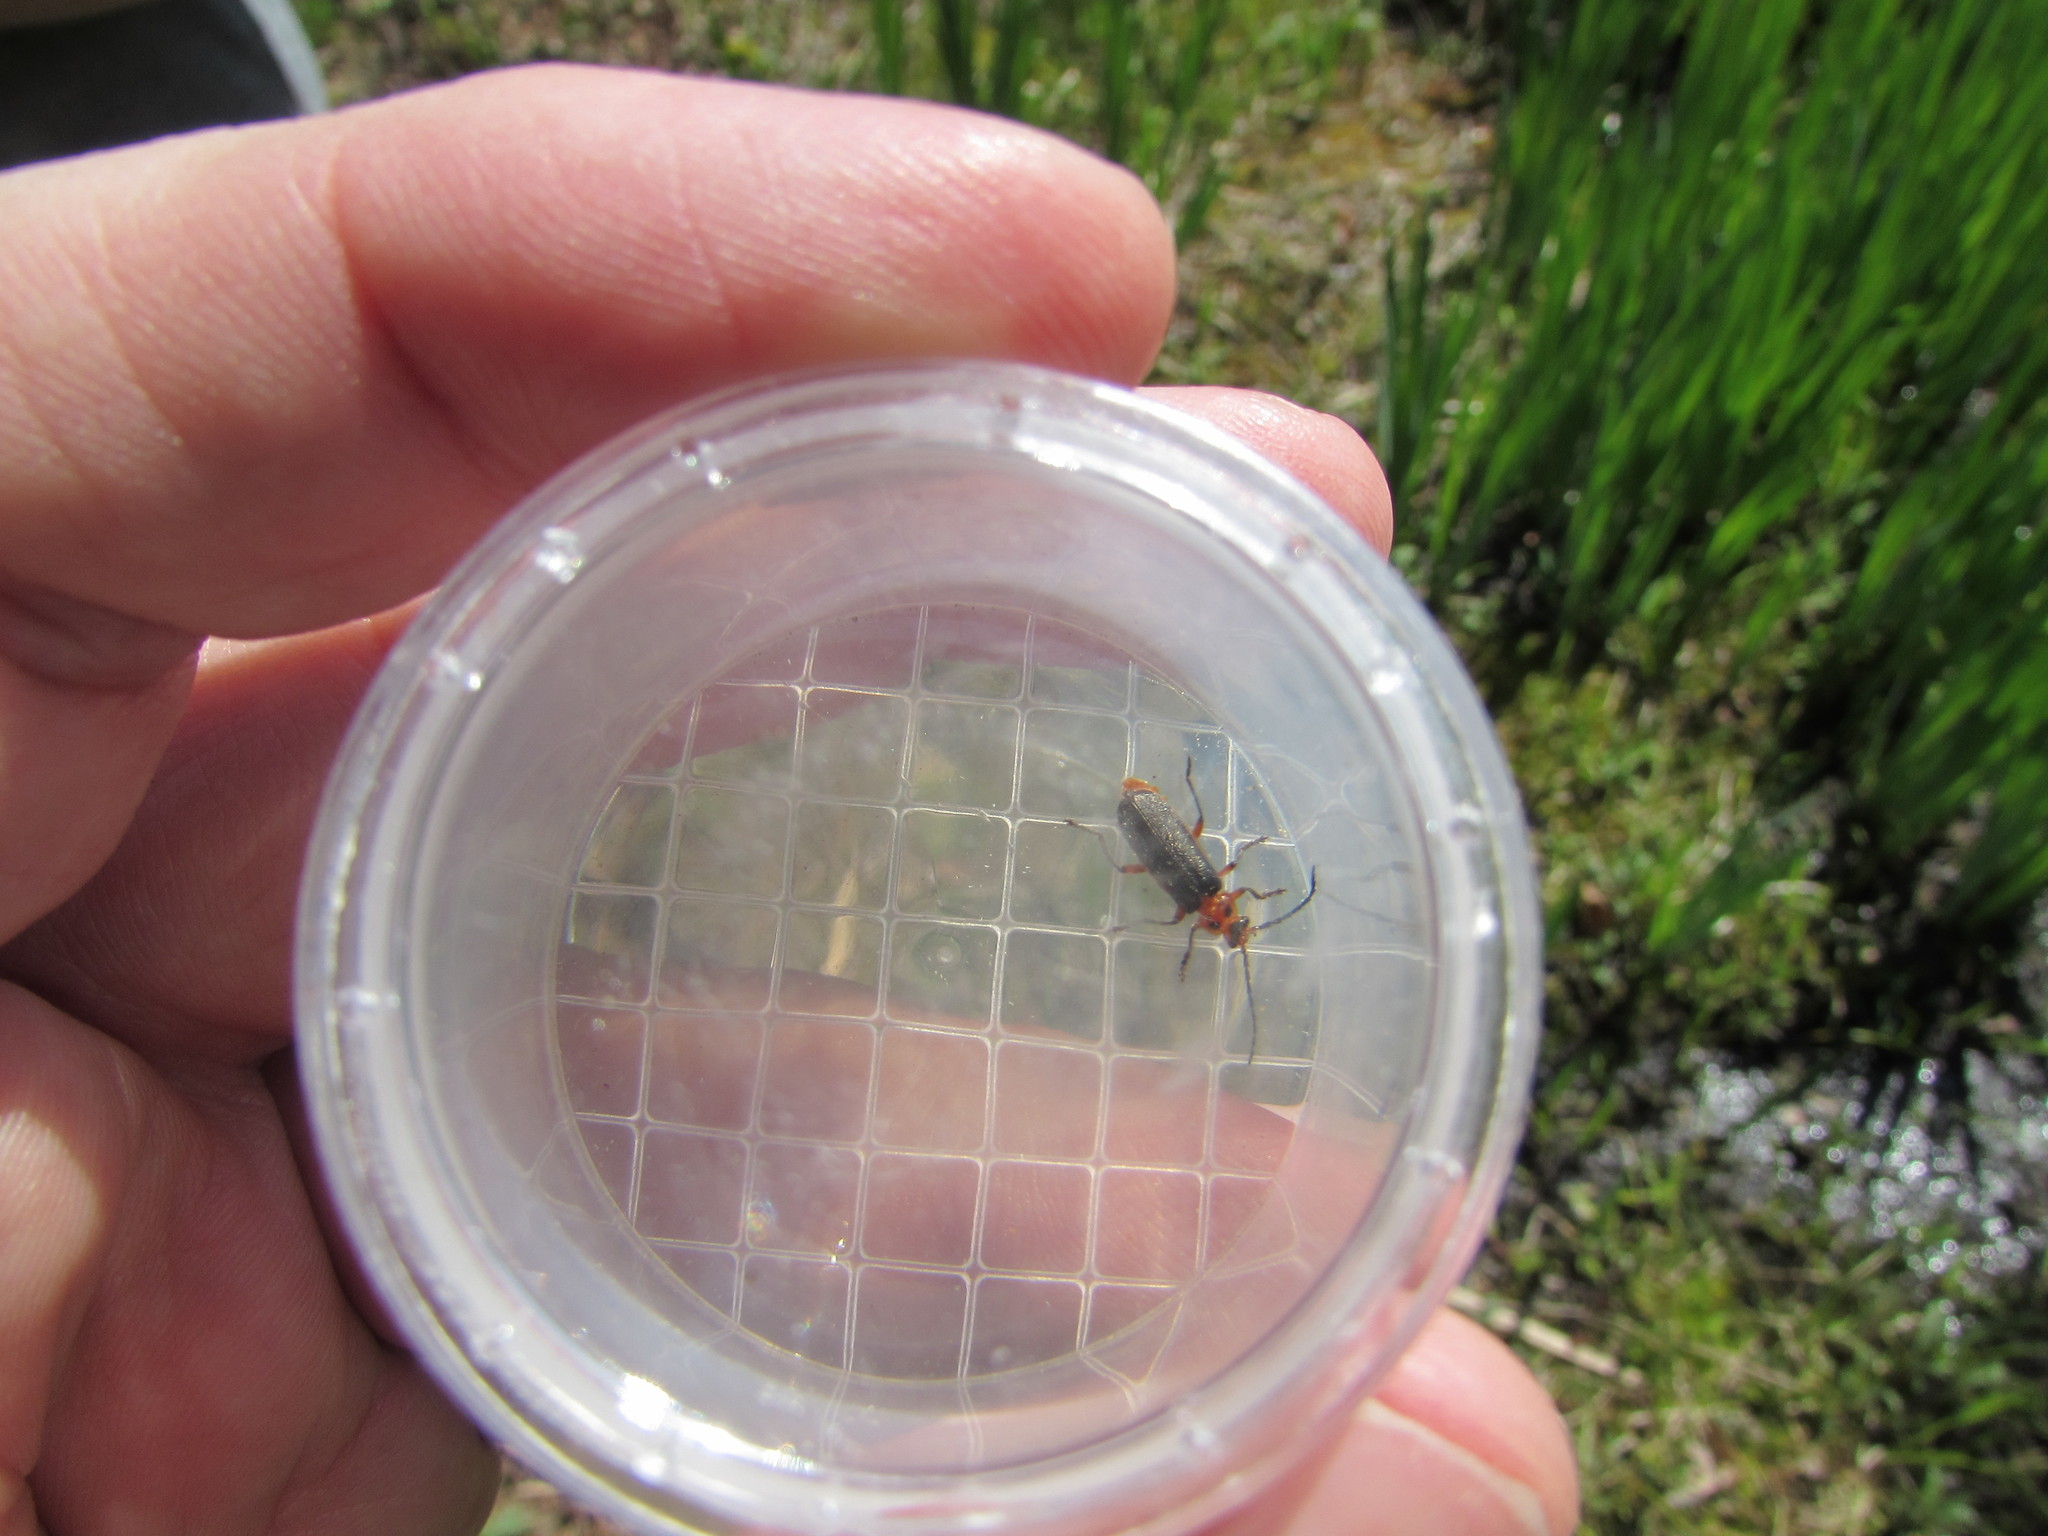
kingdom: Animalia
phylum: Arthropoda
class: Insecta
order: Coleoptera
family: Cantharidae
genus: Atalantycha
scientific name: Atalantycha bilineata
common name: Two-lined leatherwing
